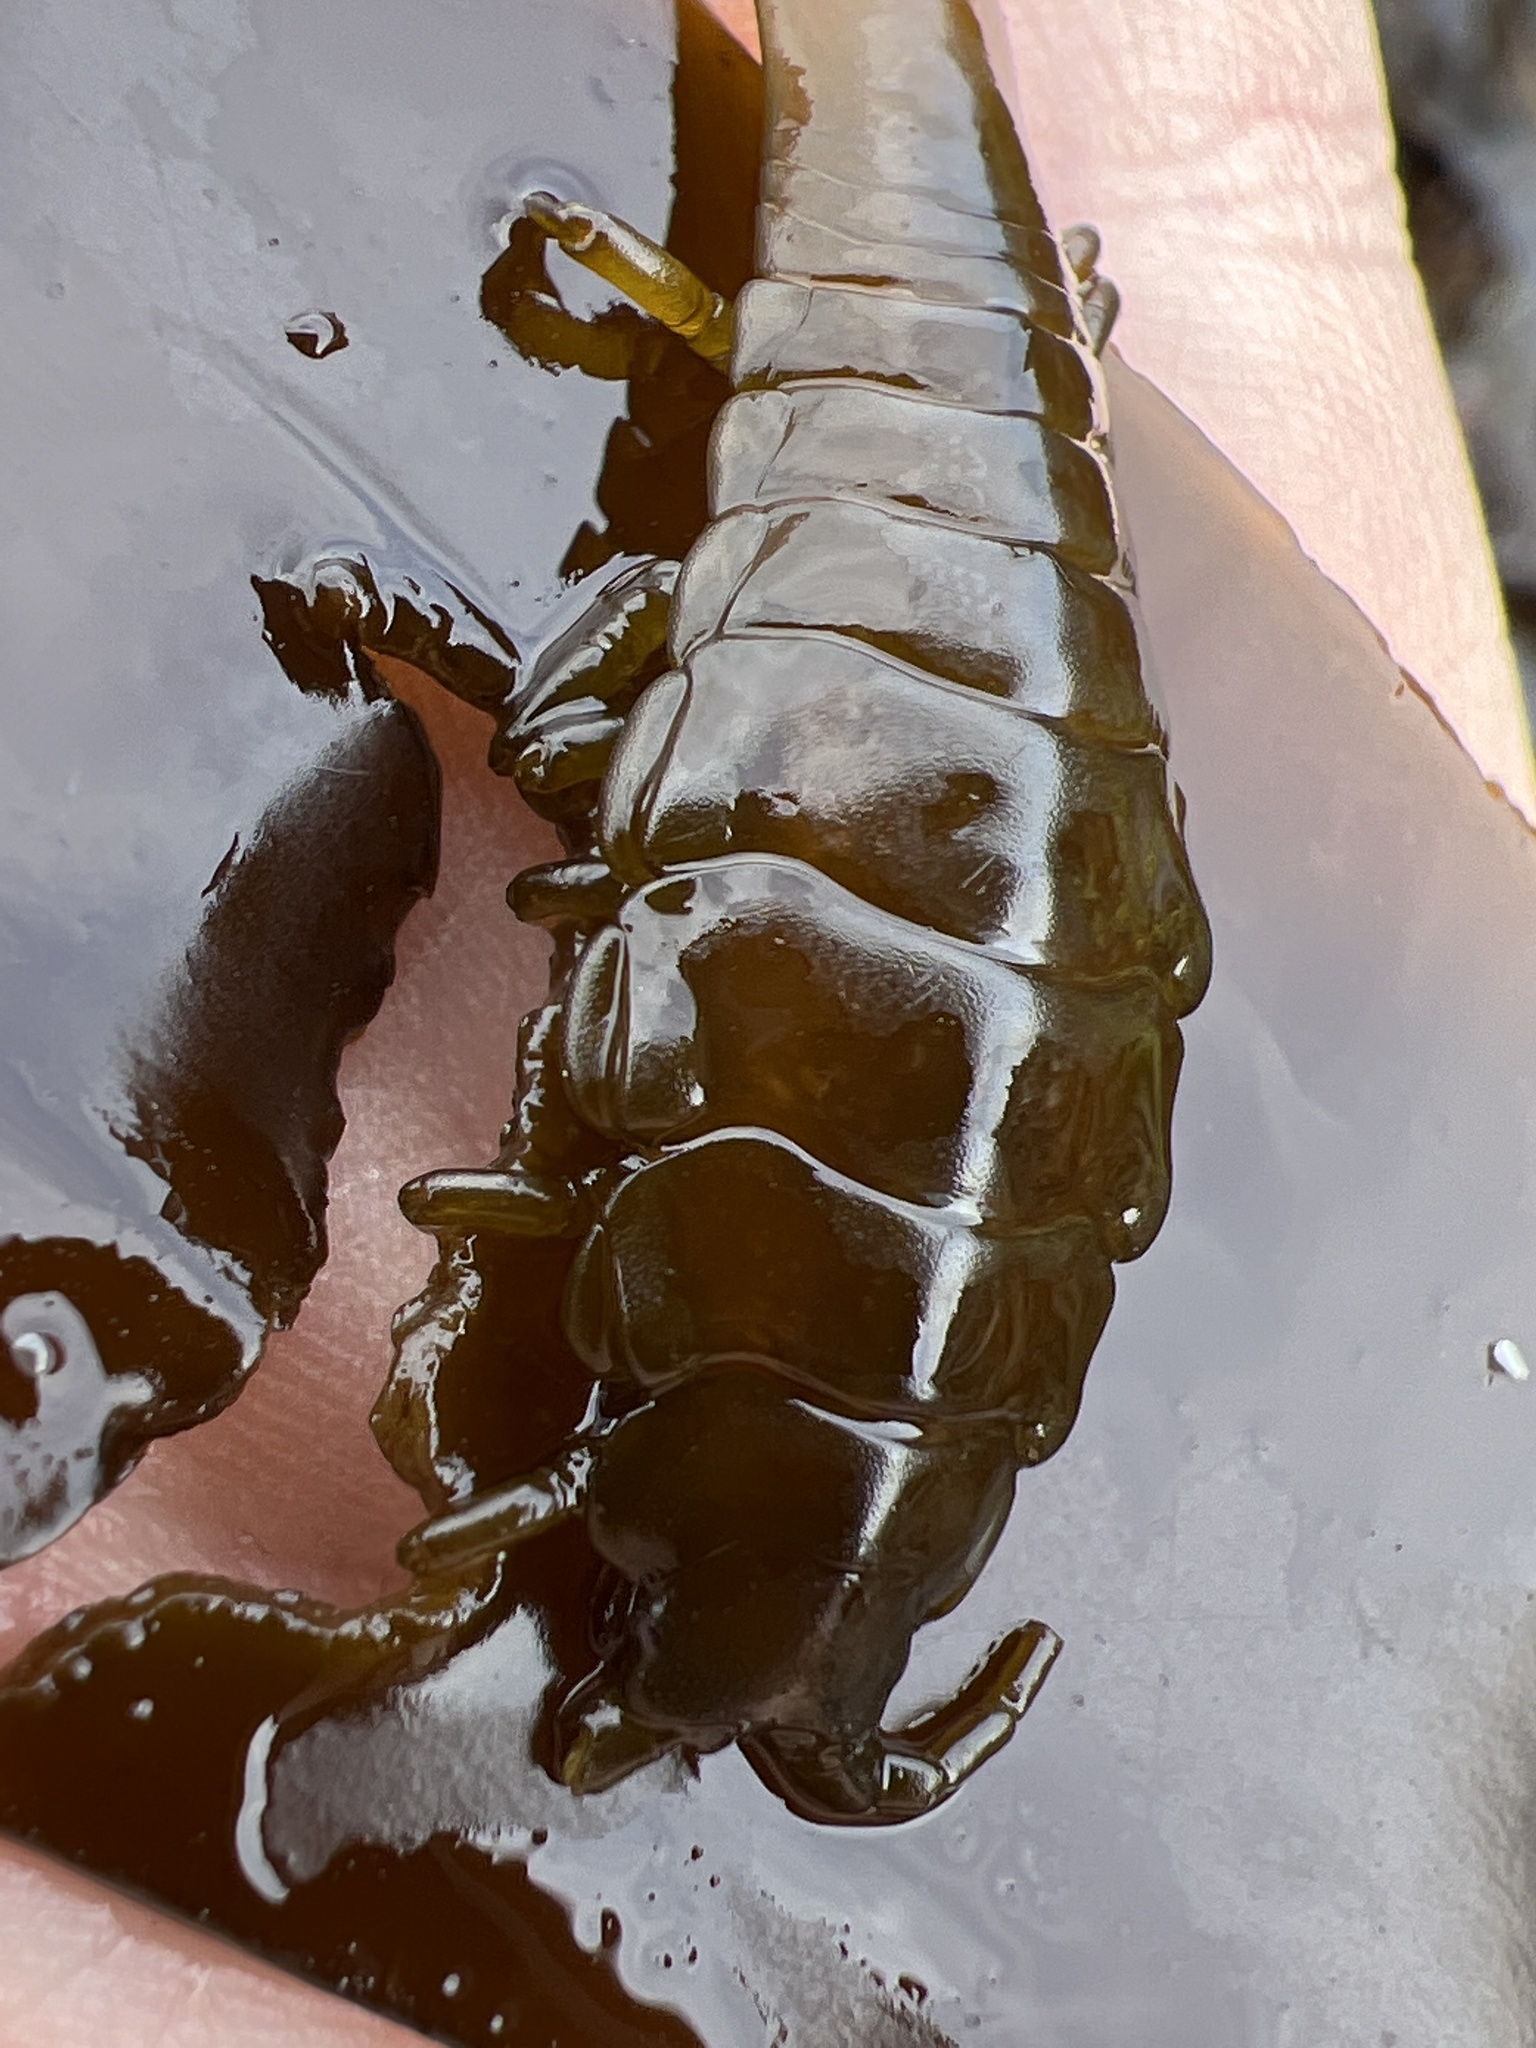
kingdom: Animalia
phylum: Arthropoda
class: Malacostraca
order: Isopoda
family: Idoteidae
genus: Pentidotea
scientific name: Pentidotea stenops
